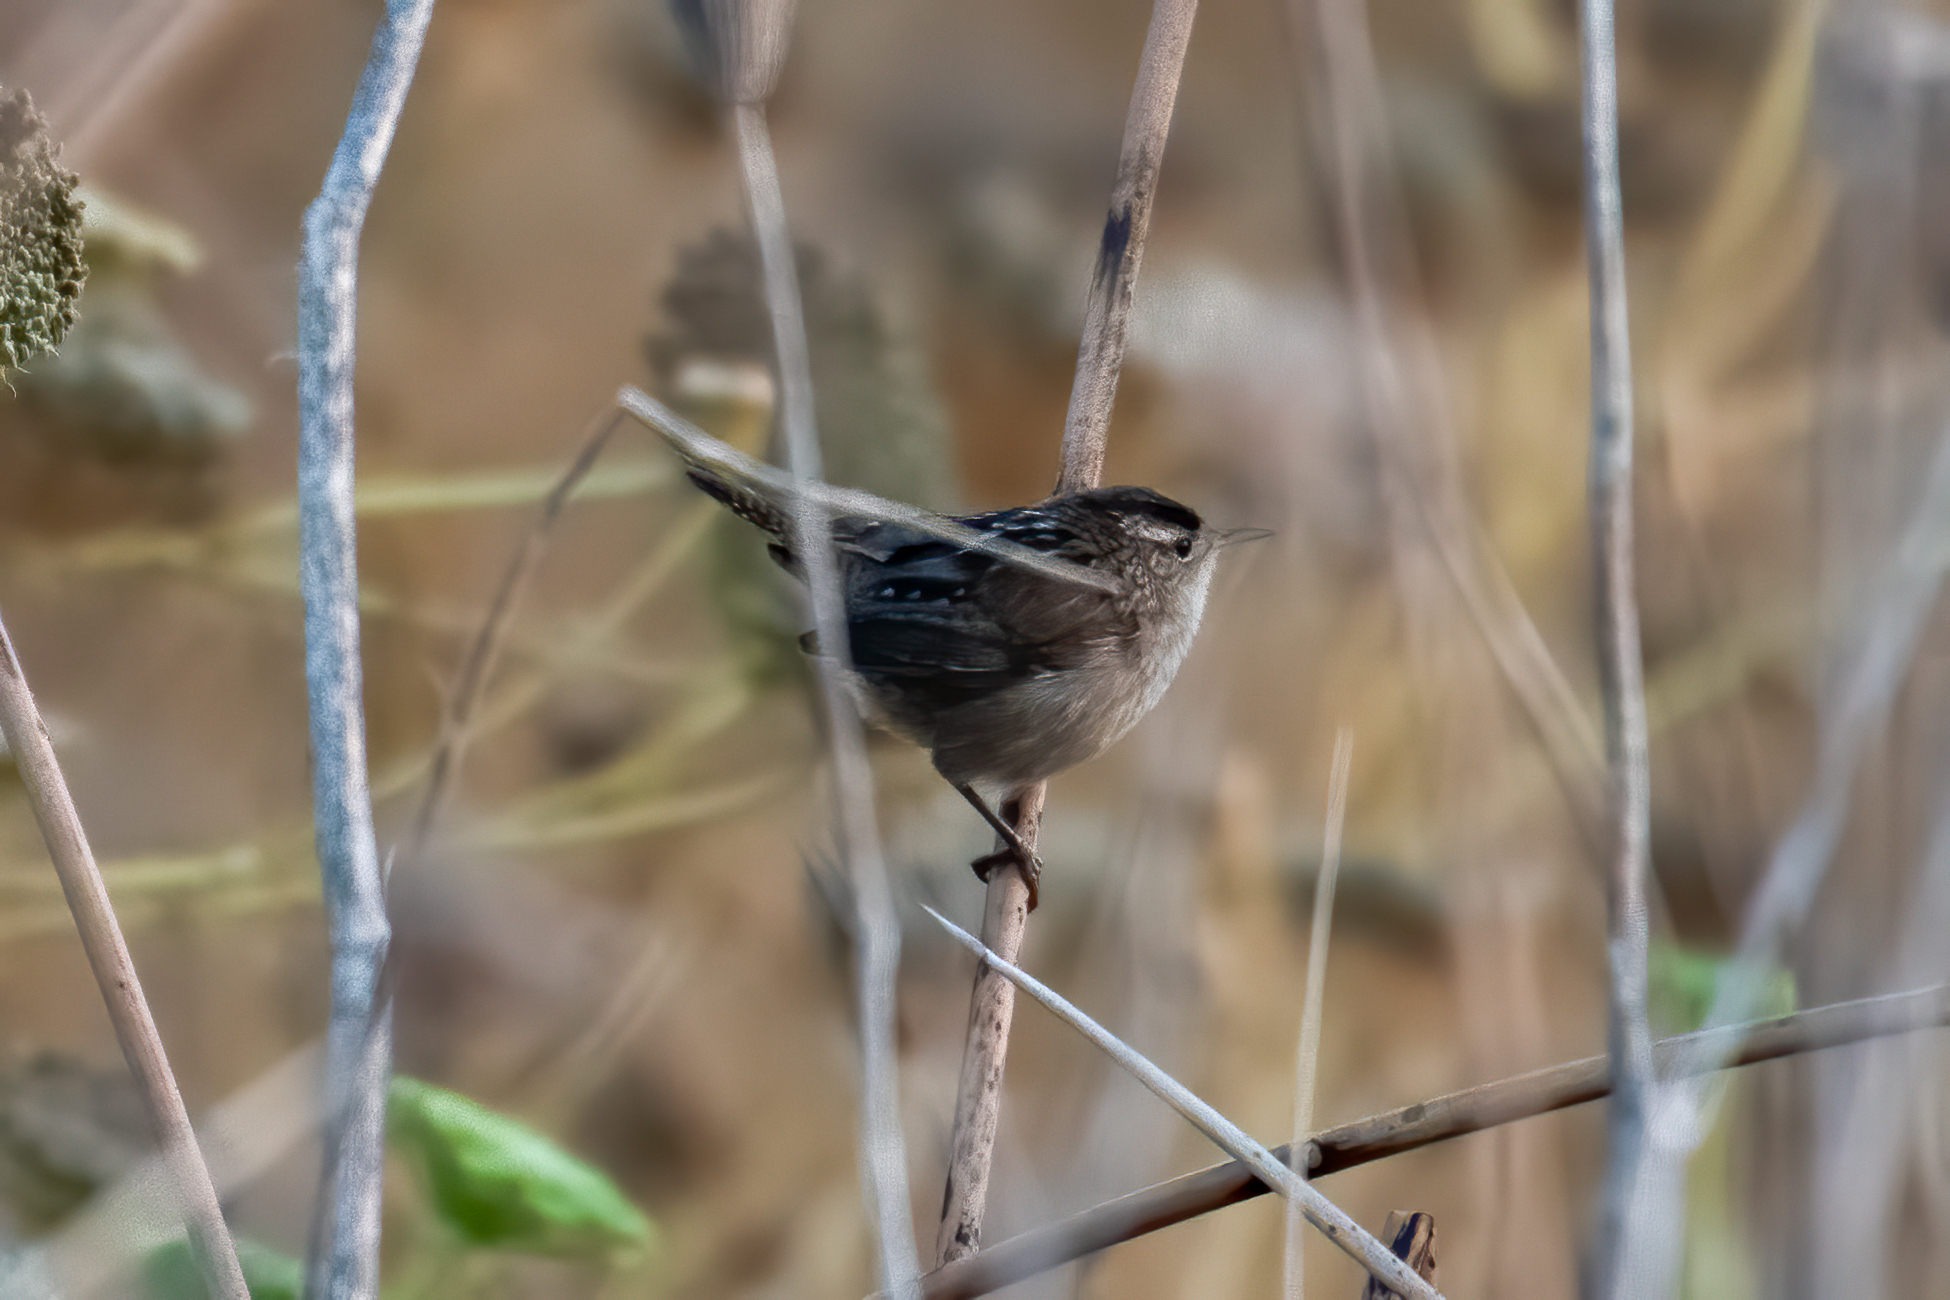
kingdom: Animalia
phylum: Chordata
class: Aves
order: Passeriformes
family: Troglodytidae
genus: Cistothorus
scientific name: Cistothorus palustris
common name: Marsh wren
